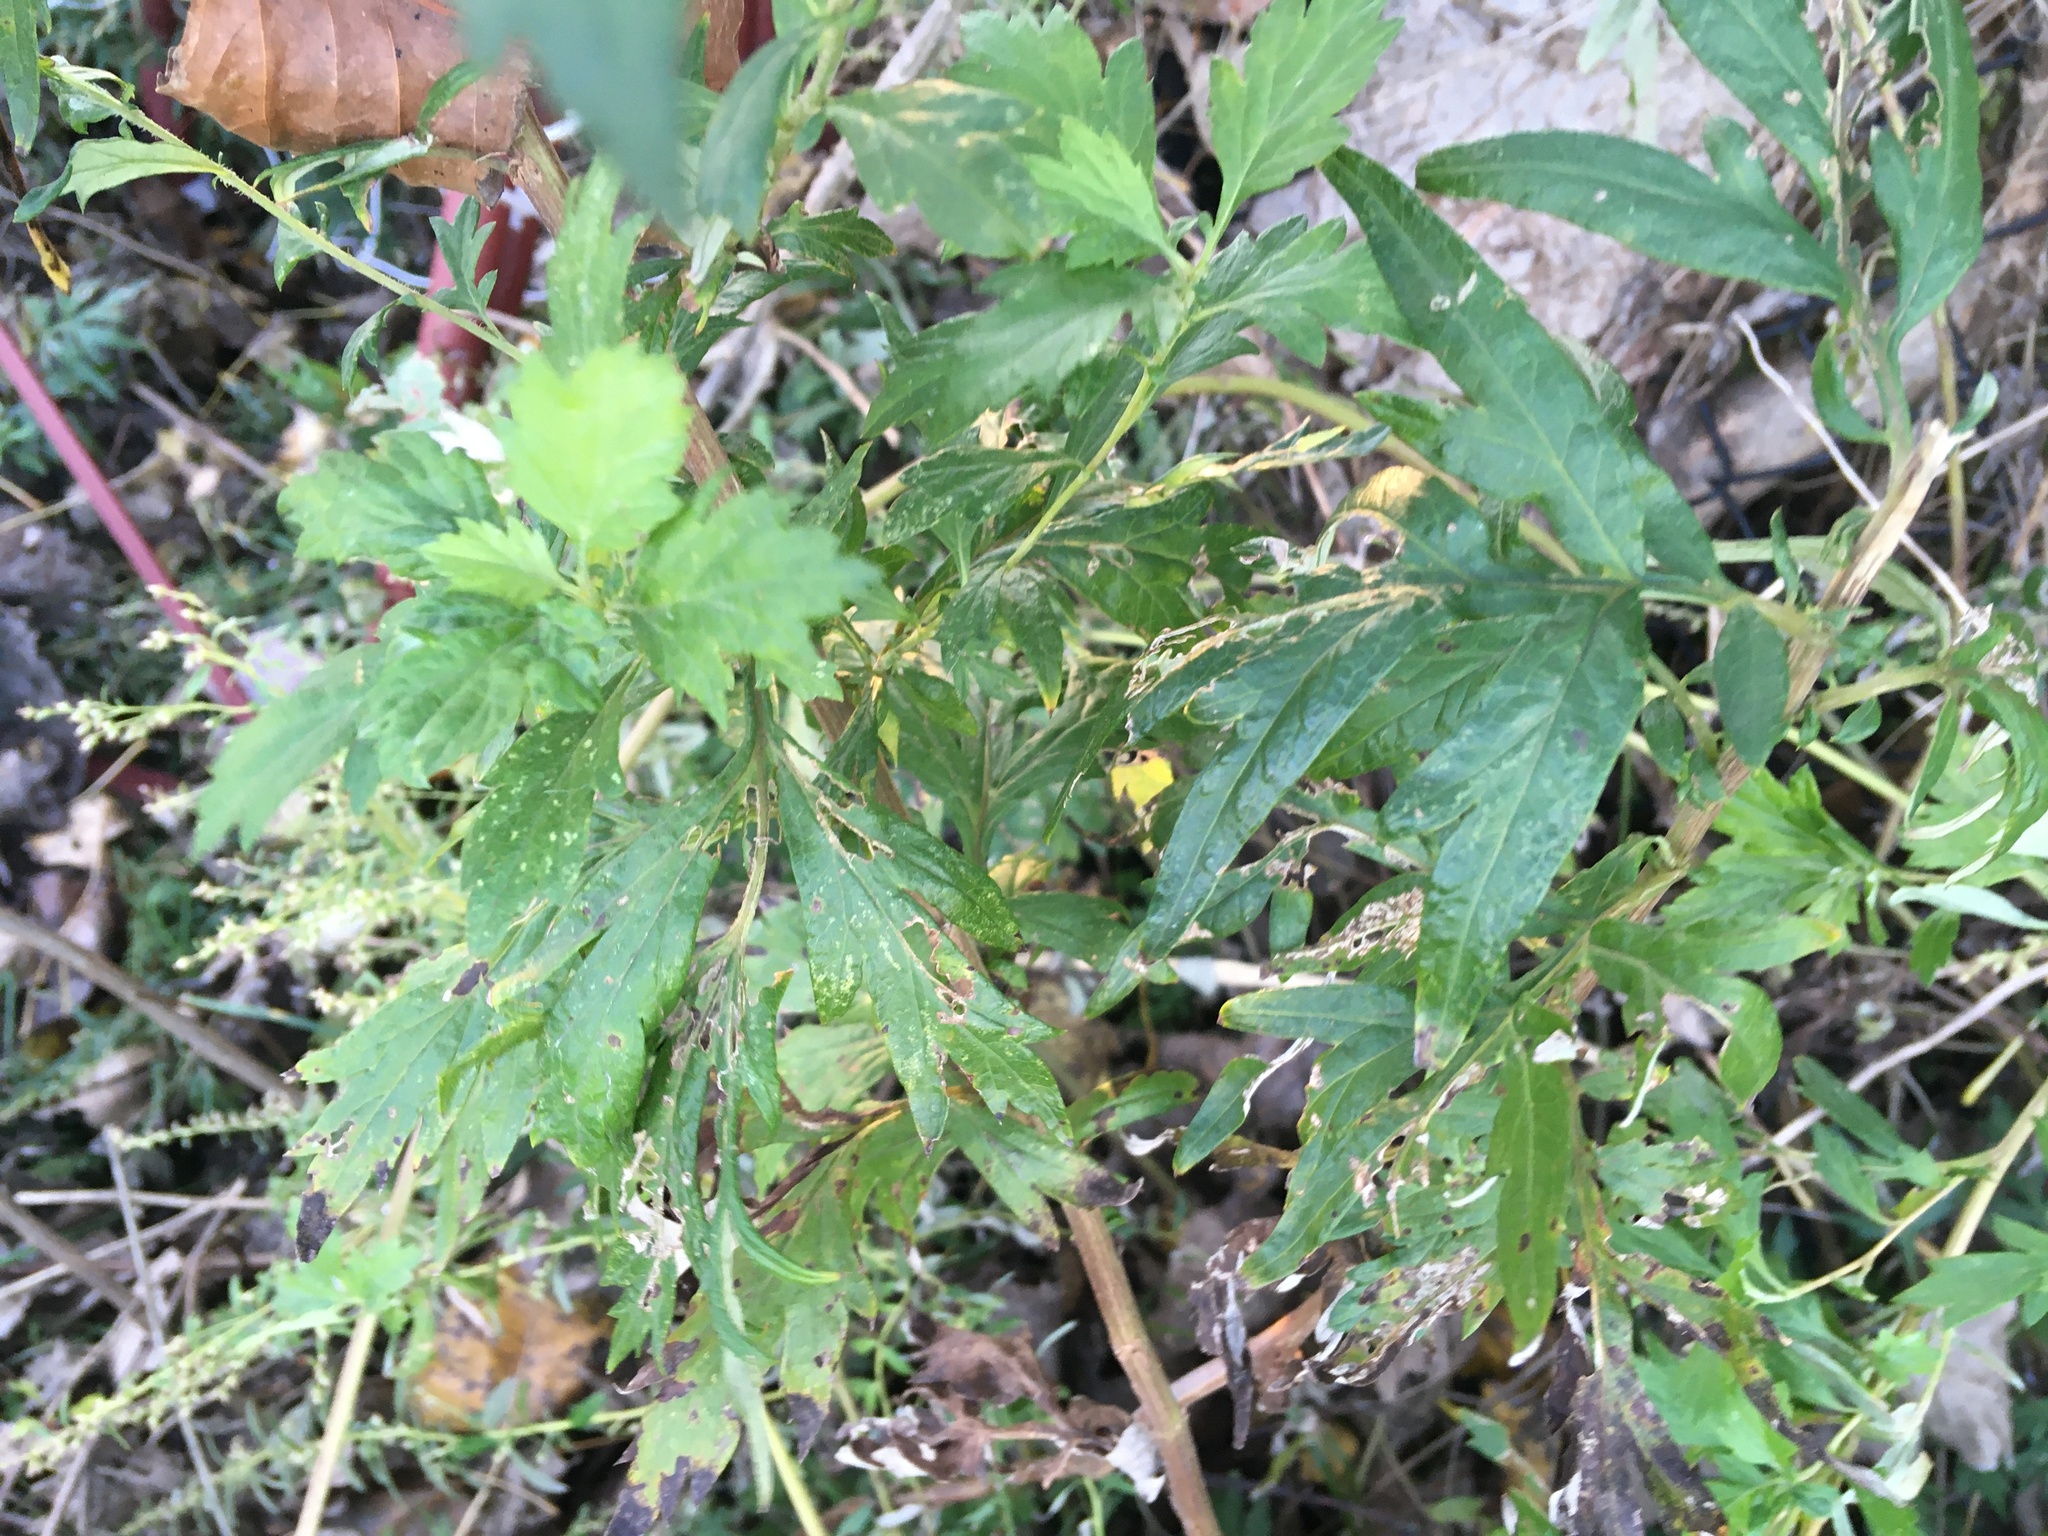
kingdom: Plantae
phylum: Tracheophyta
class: Magnoliopsida
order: Asterales
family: Asteraceae
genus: Artemisia
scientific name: Artemisia vulgaris
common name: Mugwort
